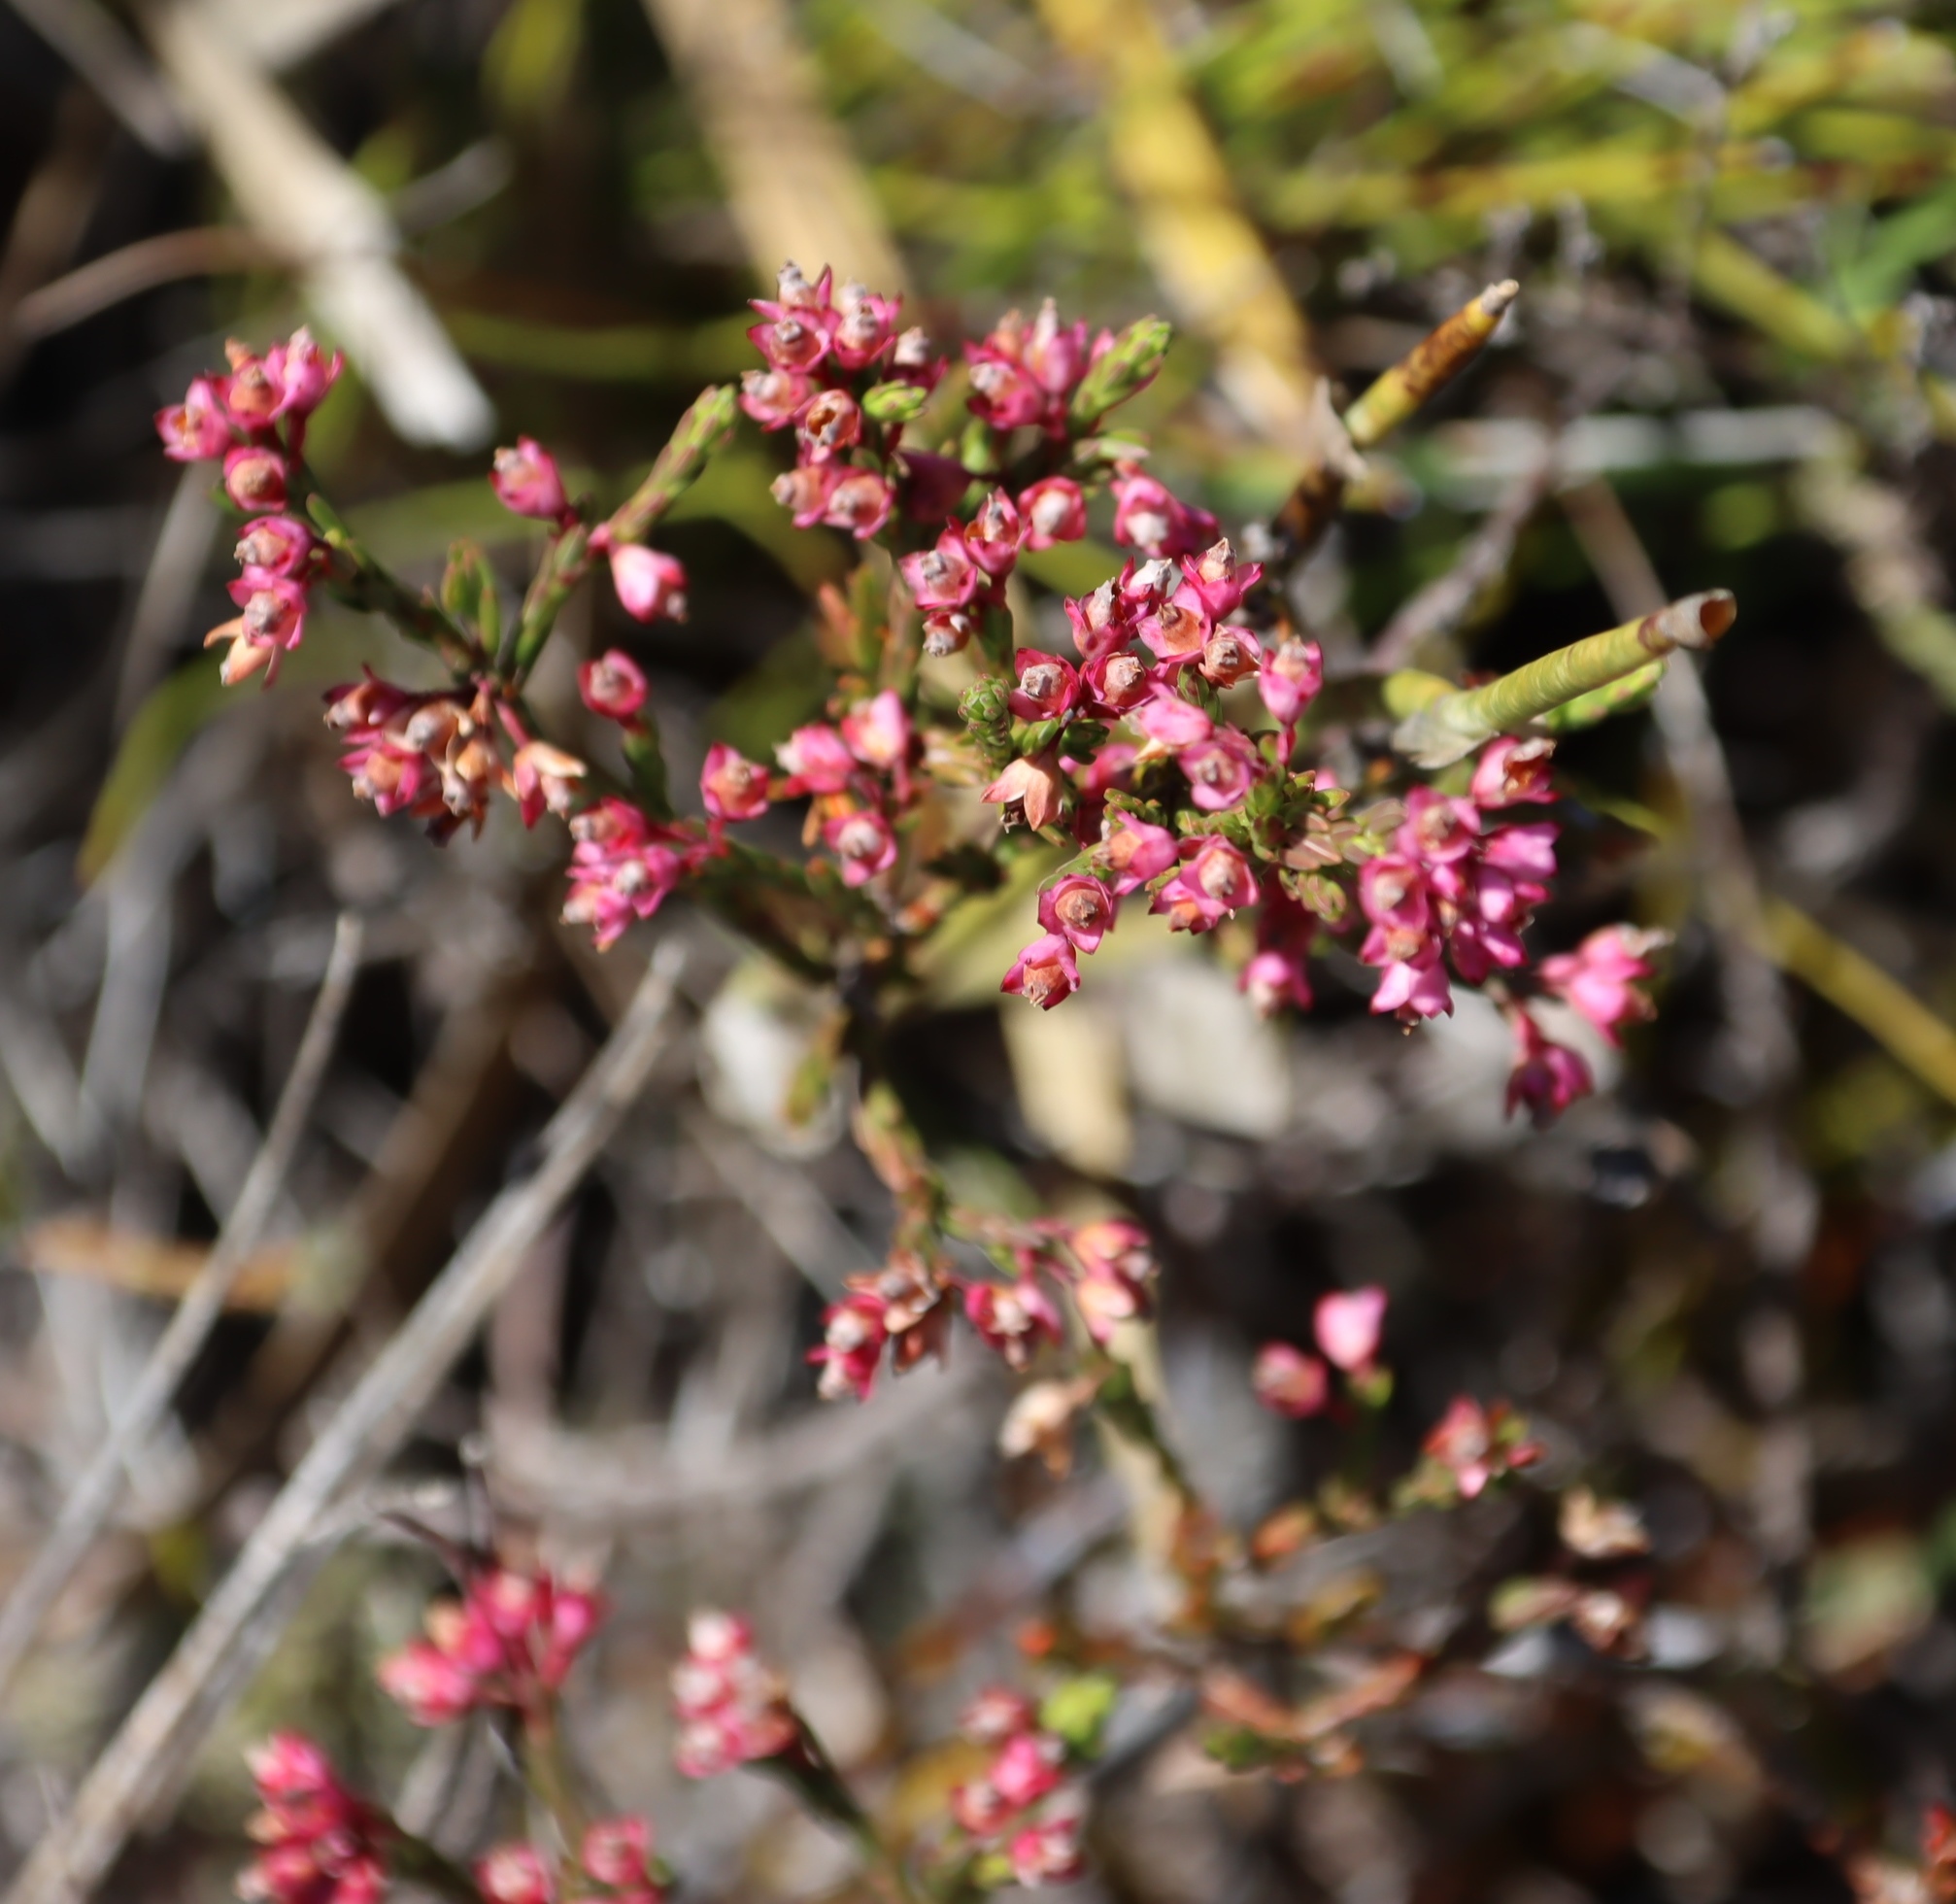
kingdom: Plantae
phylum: Tracheophyta
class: Magnoliopsida
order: Ericales
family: Ericaceae
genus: Erica
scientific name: Erica corifolia
